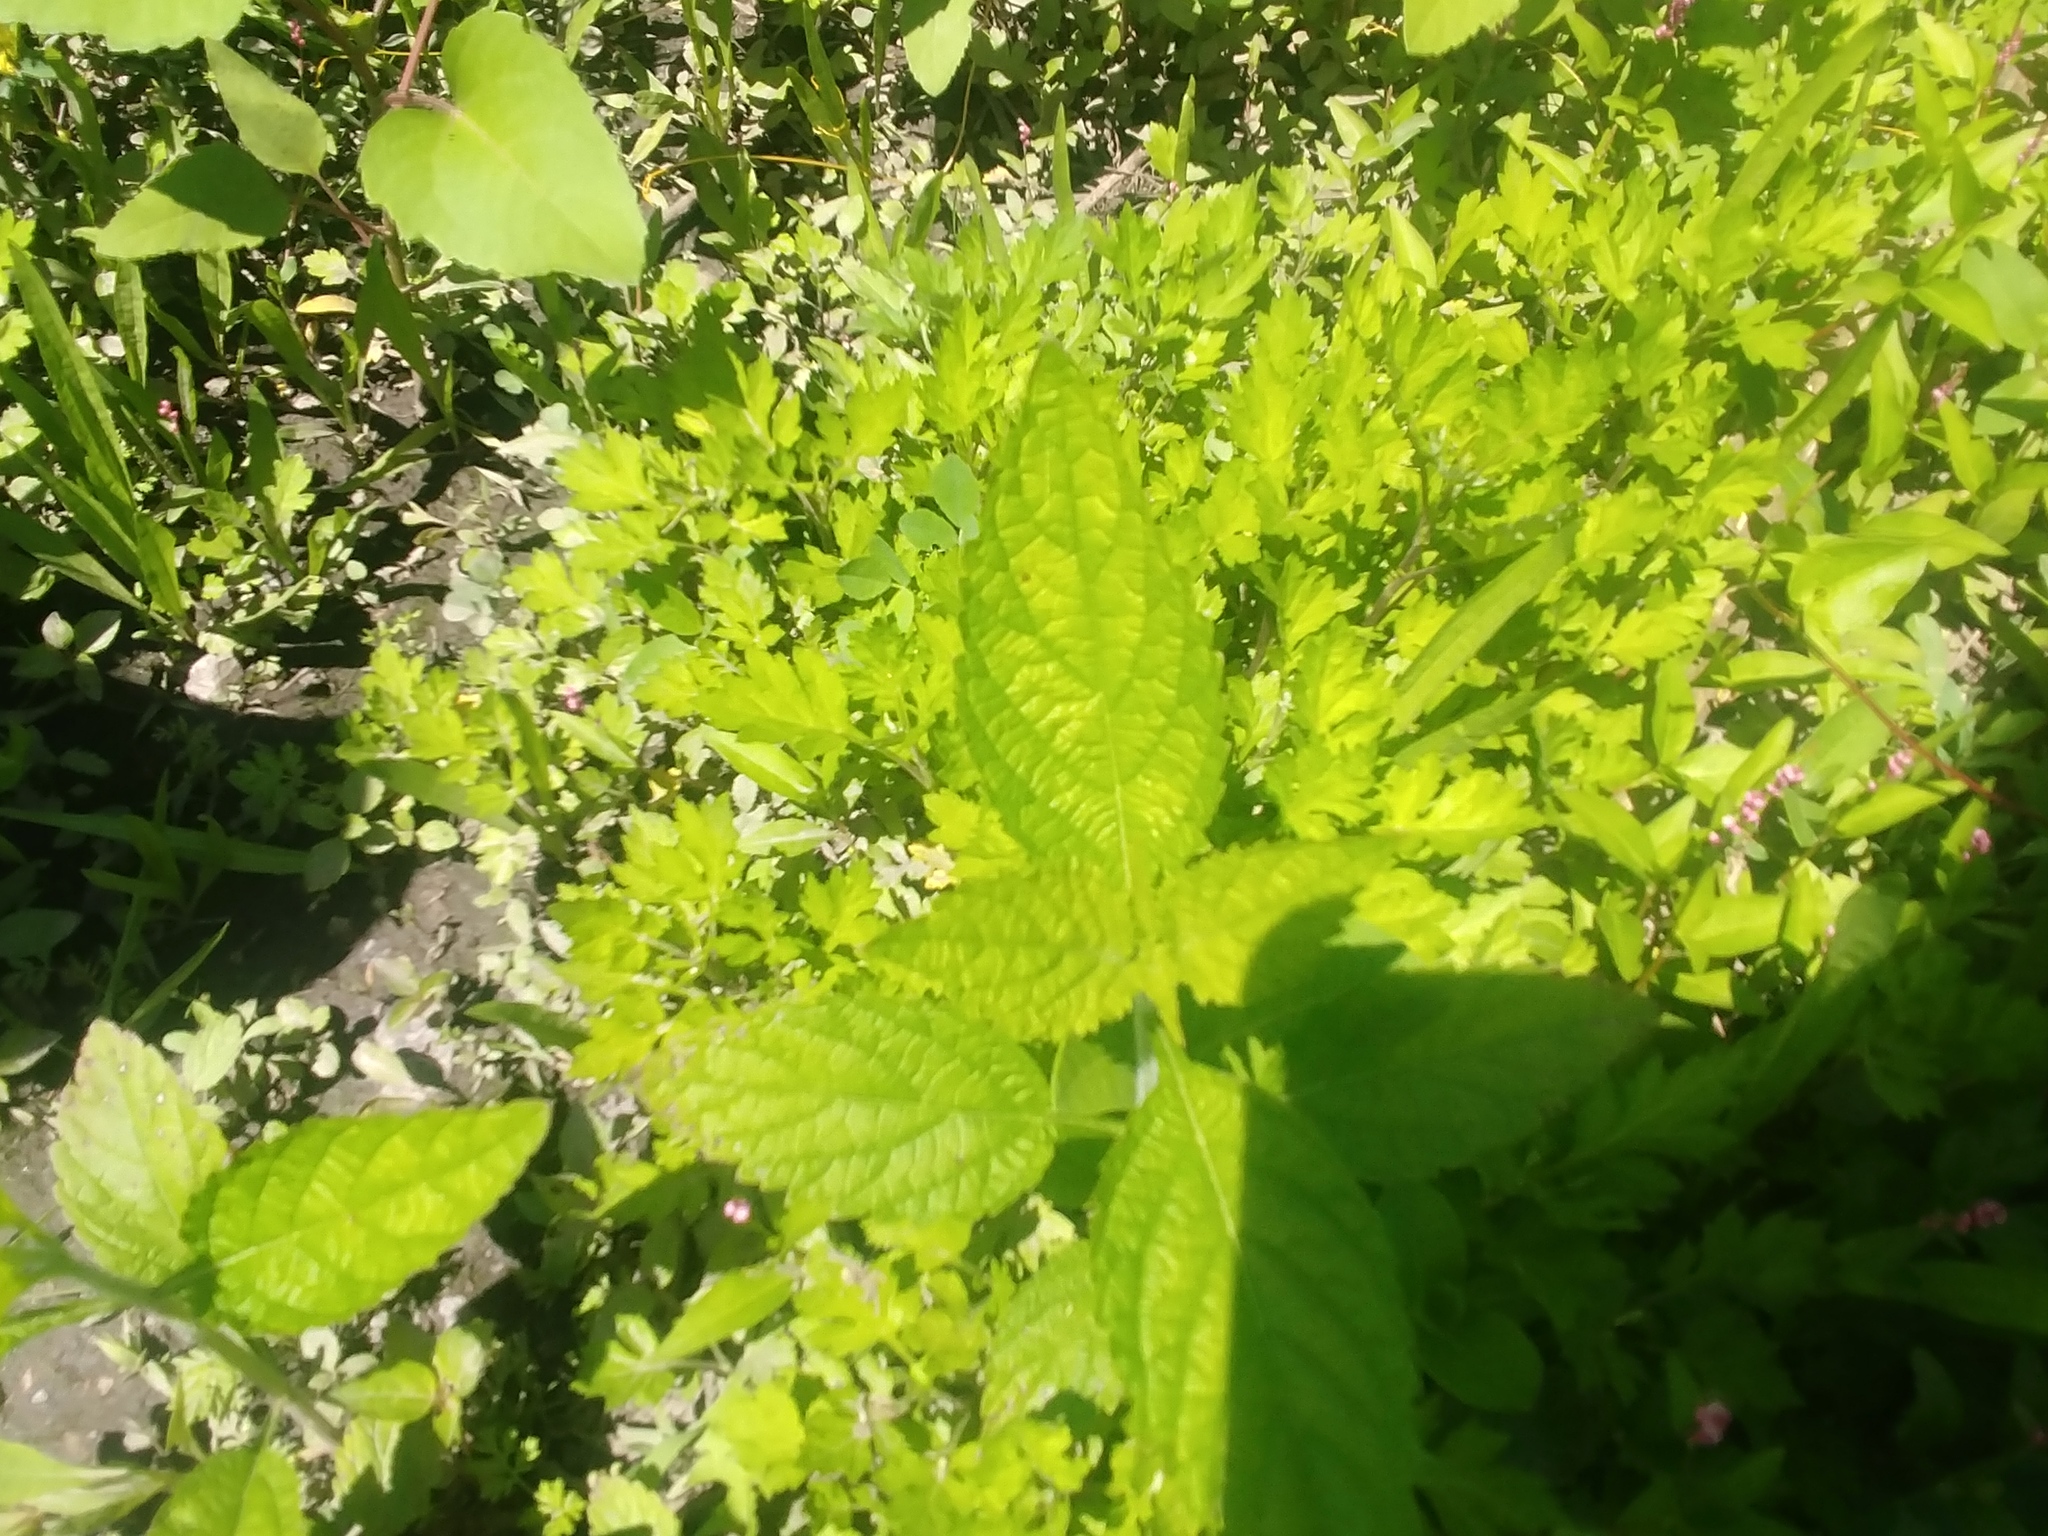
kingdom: Plantae
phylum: Tracheophyta
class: Magnoliopsida
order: Asterales
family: Asteraceae
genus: Ageratina
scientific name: Ageratina altissima
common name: White snakeroot
